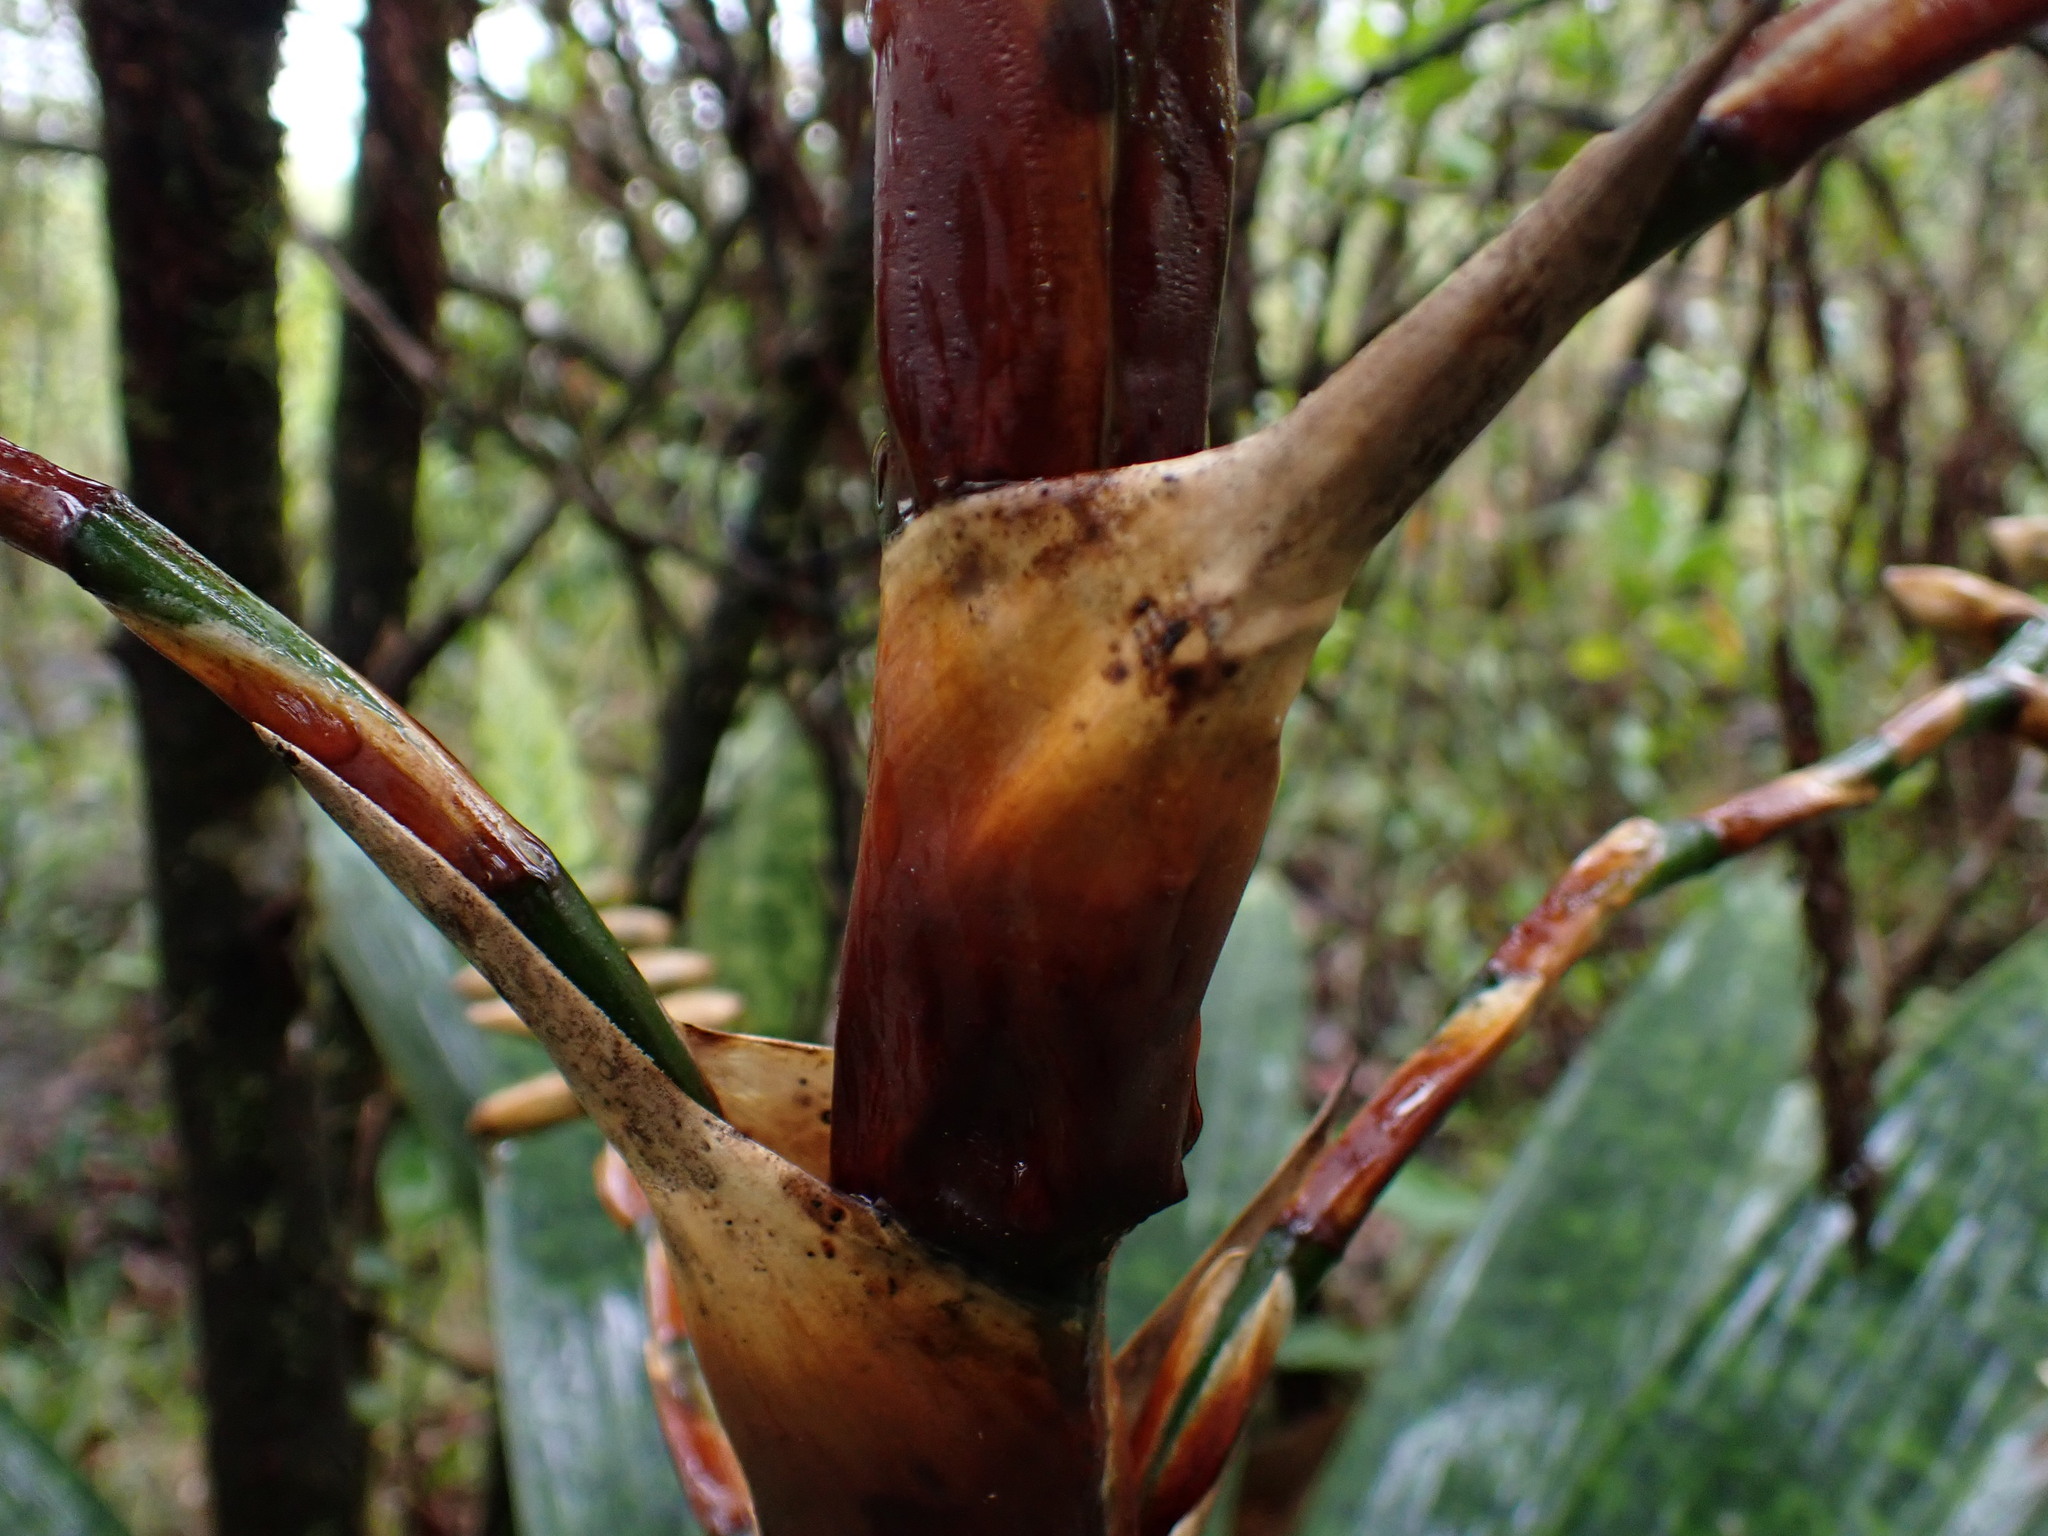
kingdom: Plantae
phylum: Tracheophyta
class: Liliopsida
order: Poales
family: Bromeliaceae
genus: Werauhia
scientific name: Werauhia kupperiana
